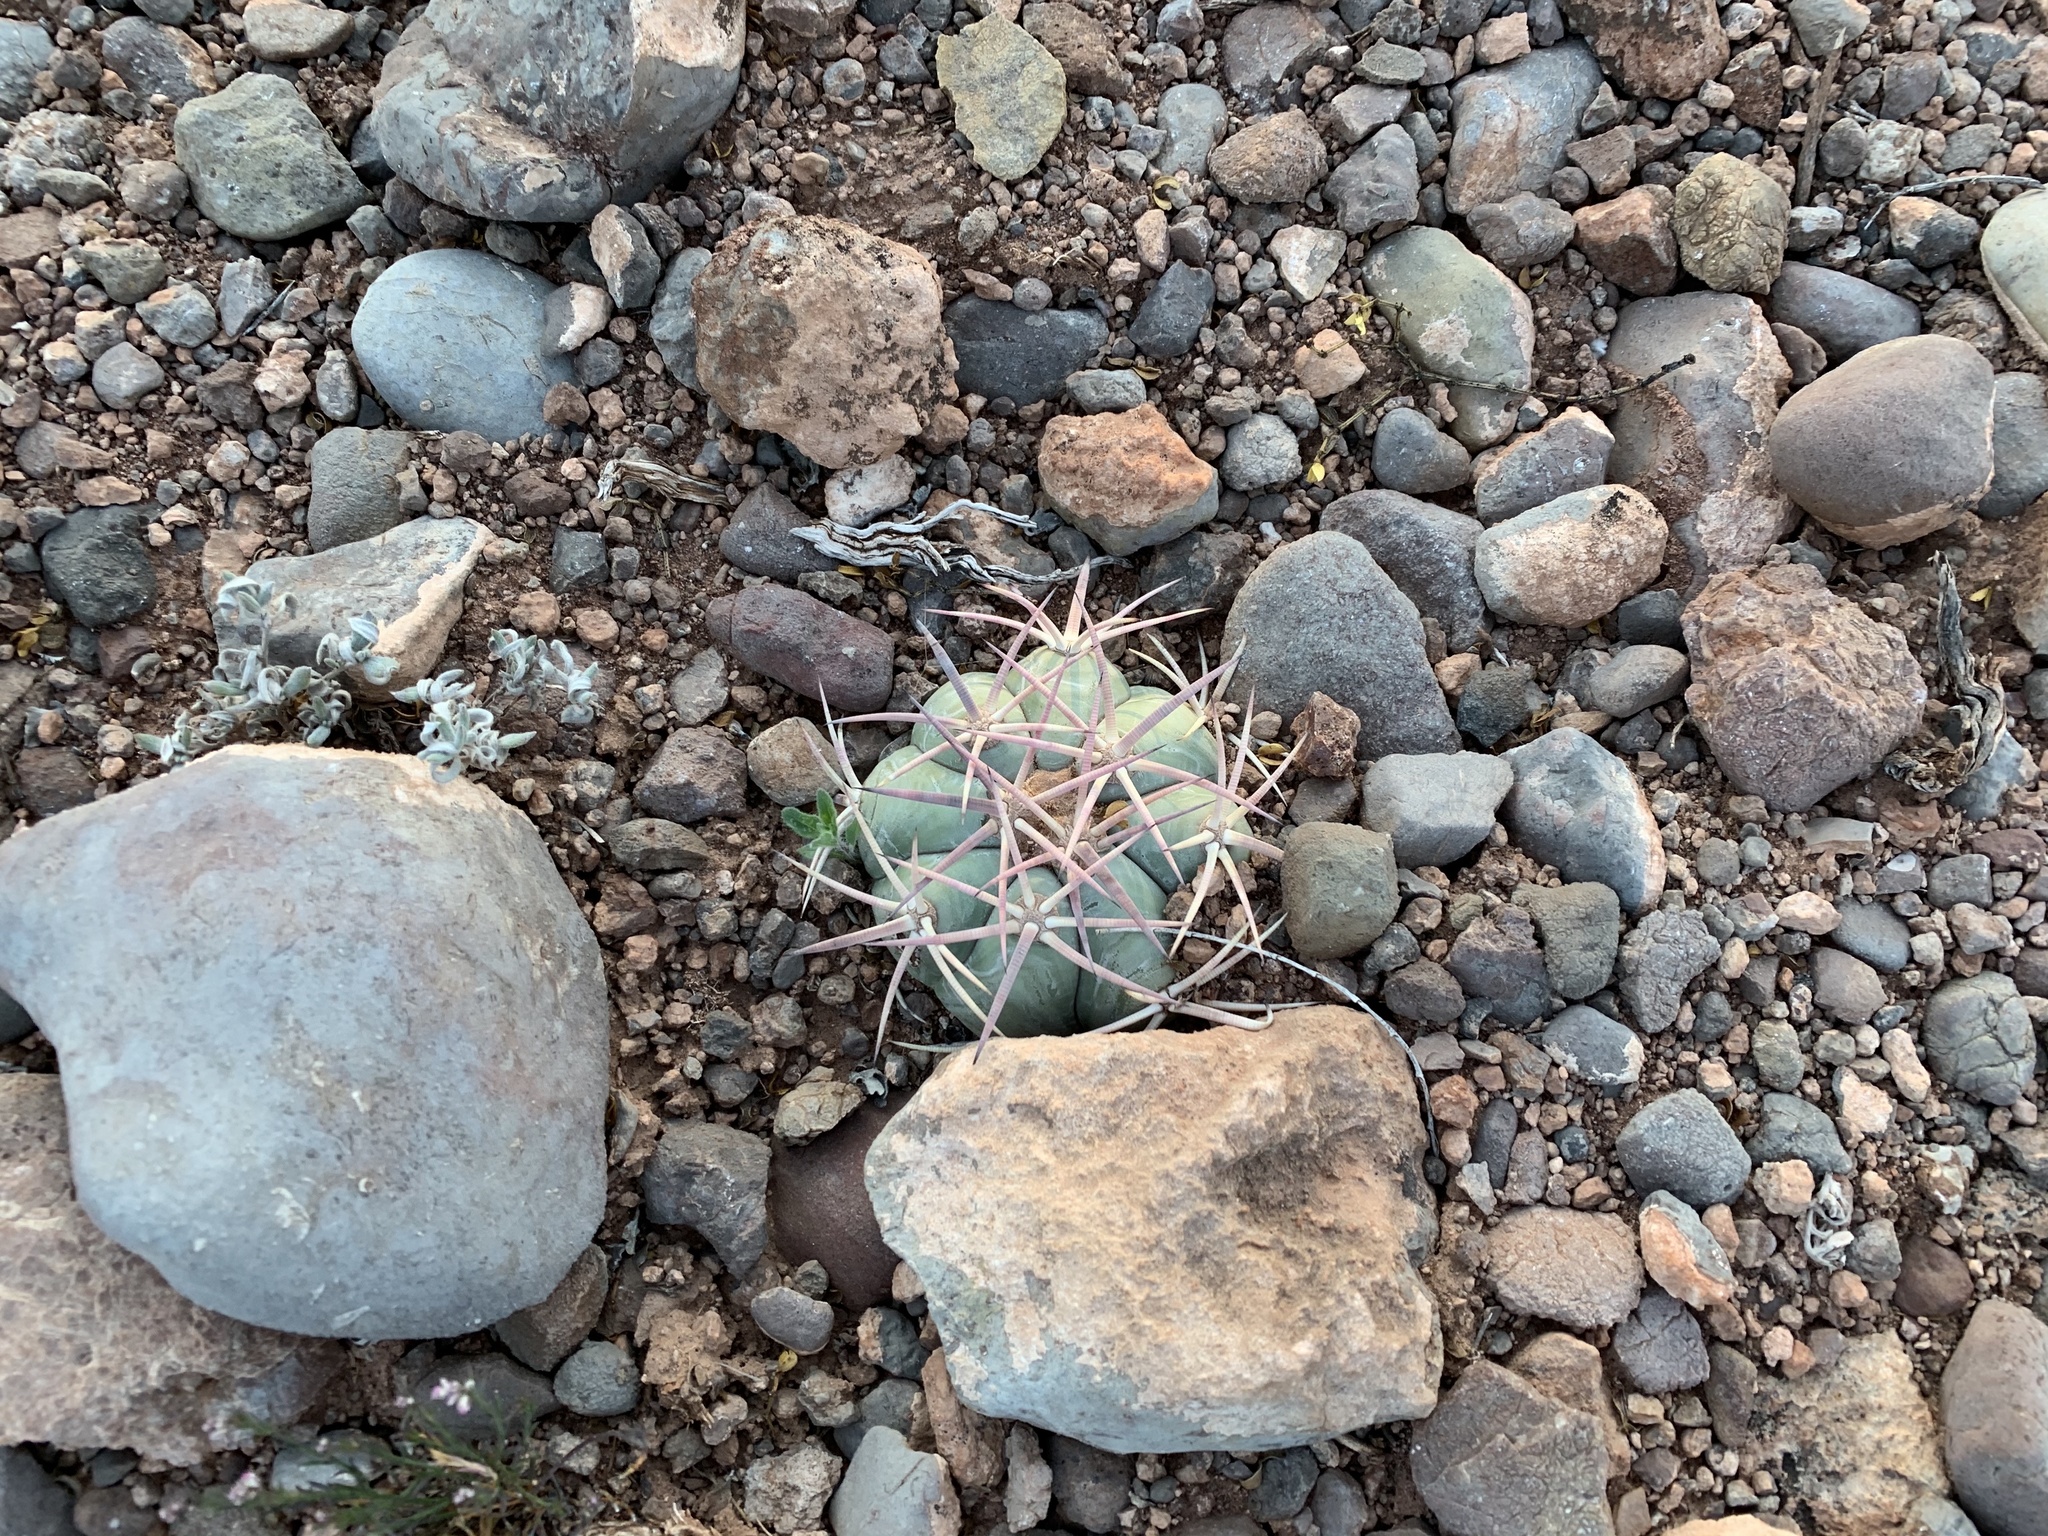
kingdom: Plantae
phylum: Tracheophyta
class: Magnoliopsida
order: Caryophyllales
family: Cactaceae
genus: Echinocactus
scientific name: Echinocactus horizonthalonius
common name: Devilshead
